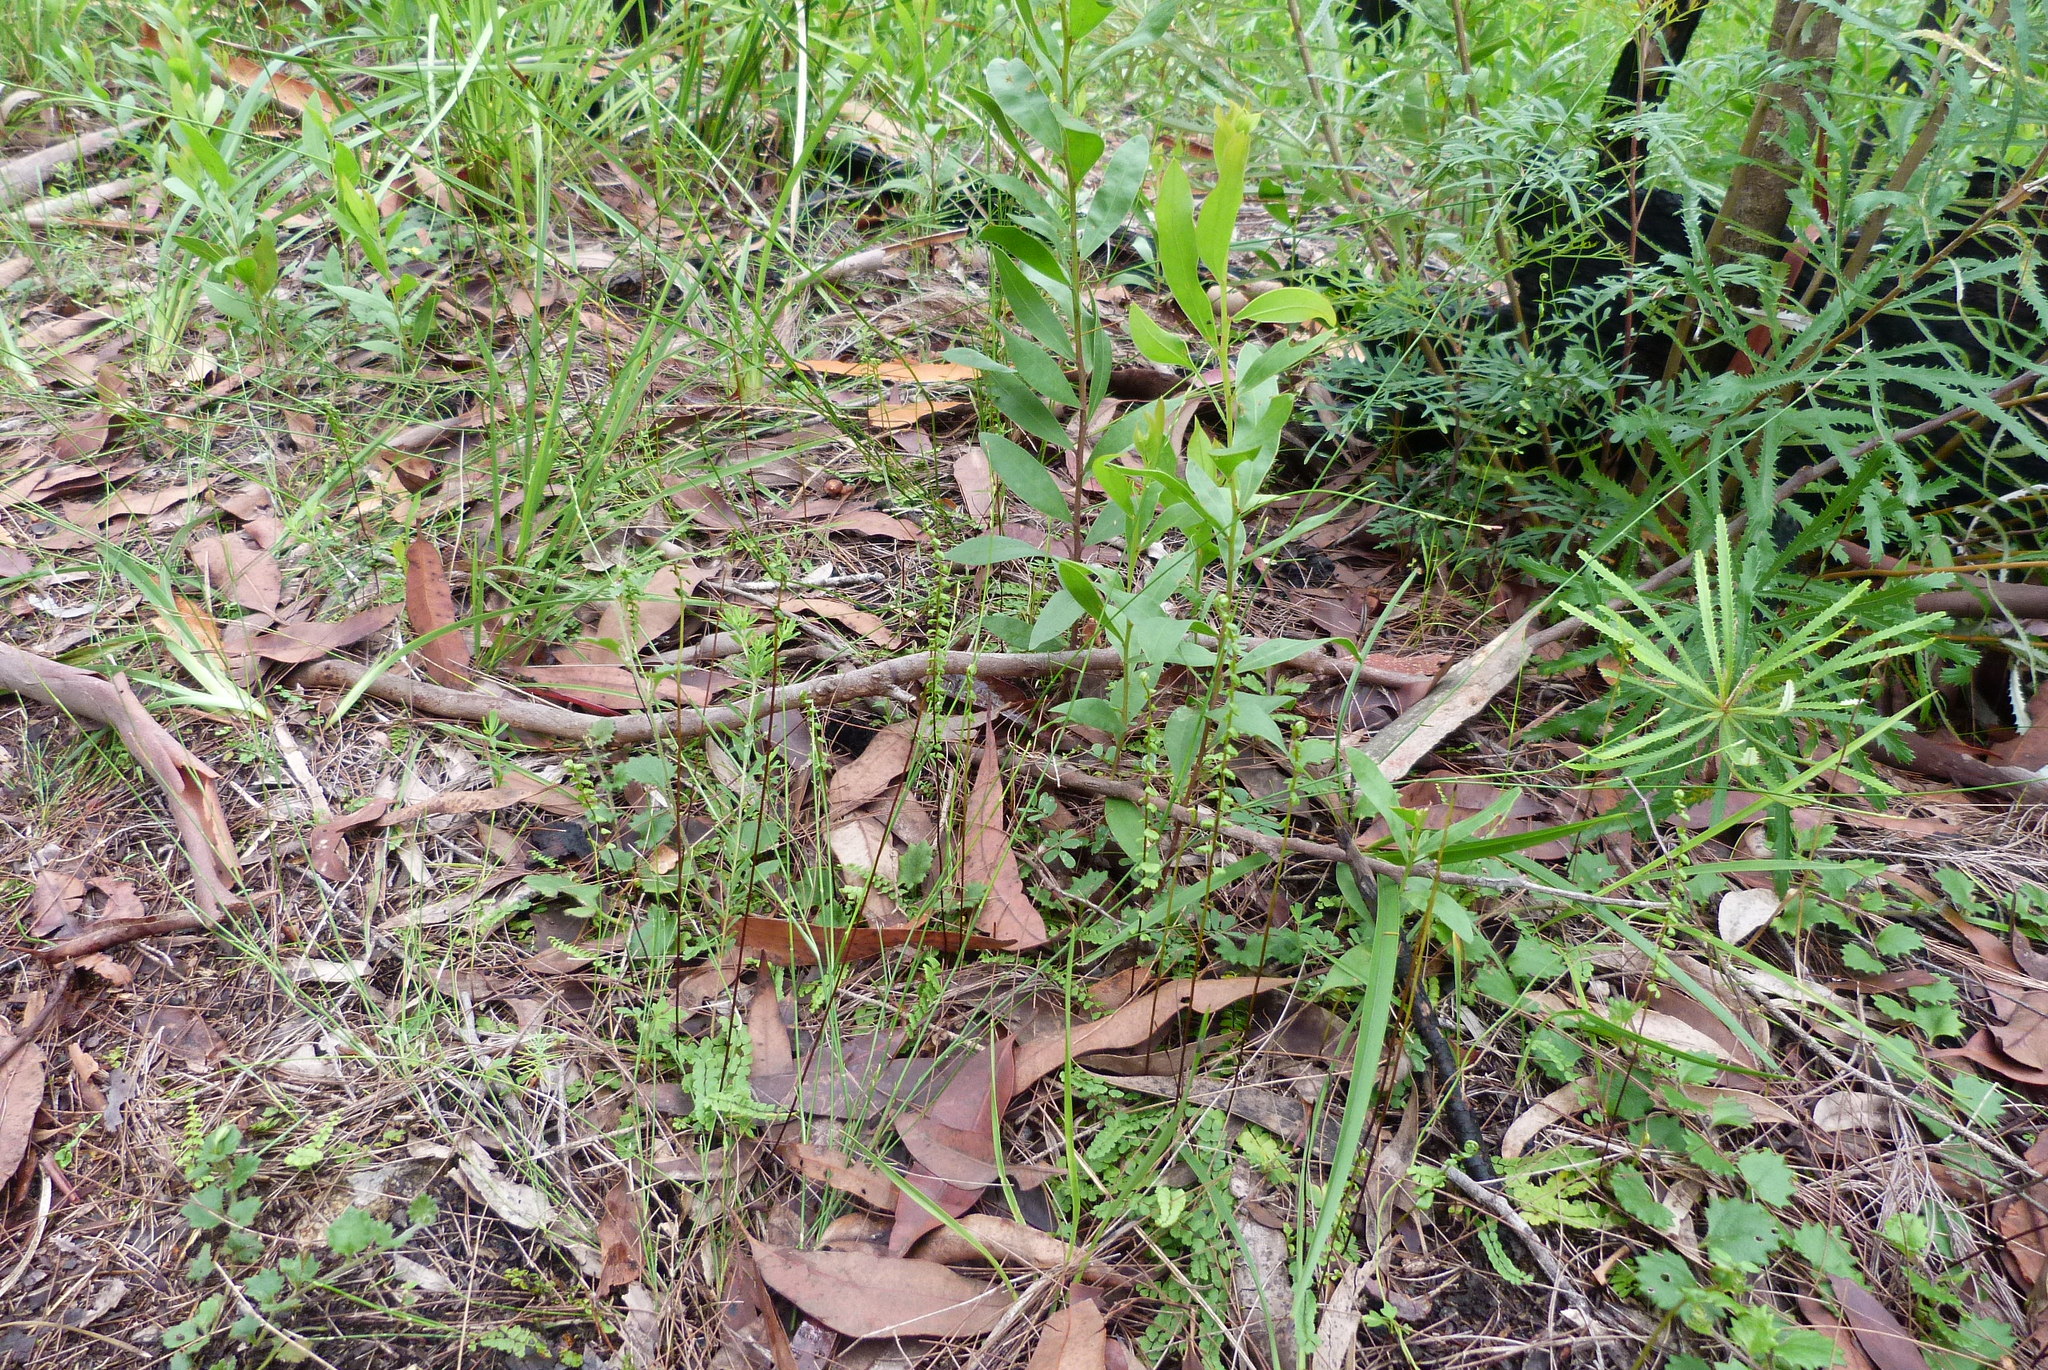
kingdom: Plantae
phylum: Tracheophyta
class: Polypodiopsida
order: Polypodiales
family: Lindsaeaceae
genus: Lindsaea
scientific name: Lindsaea linearis
